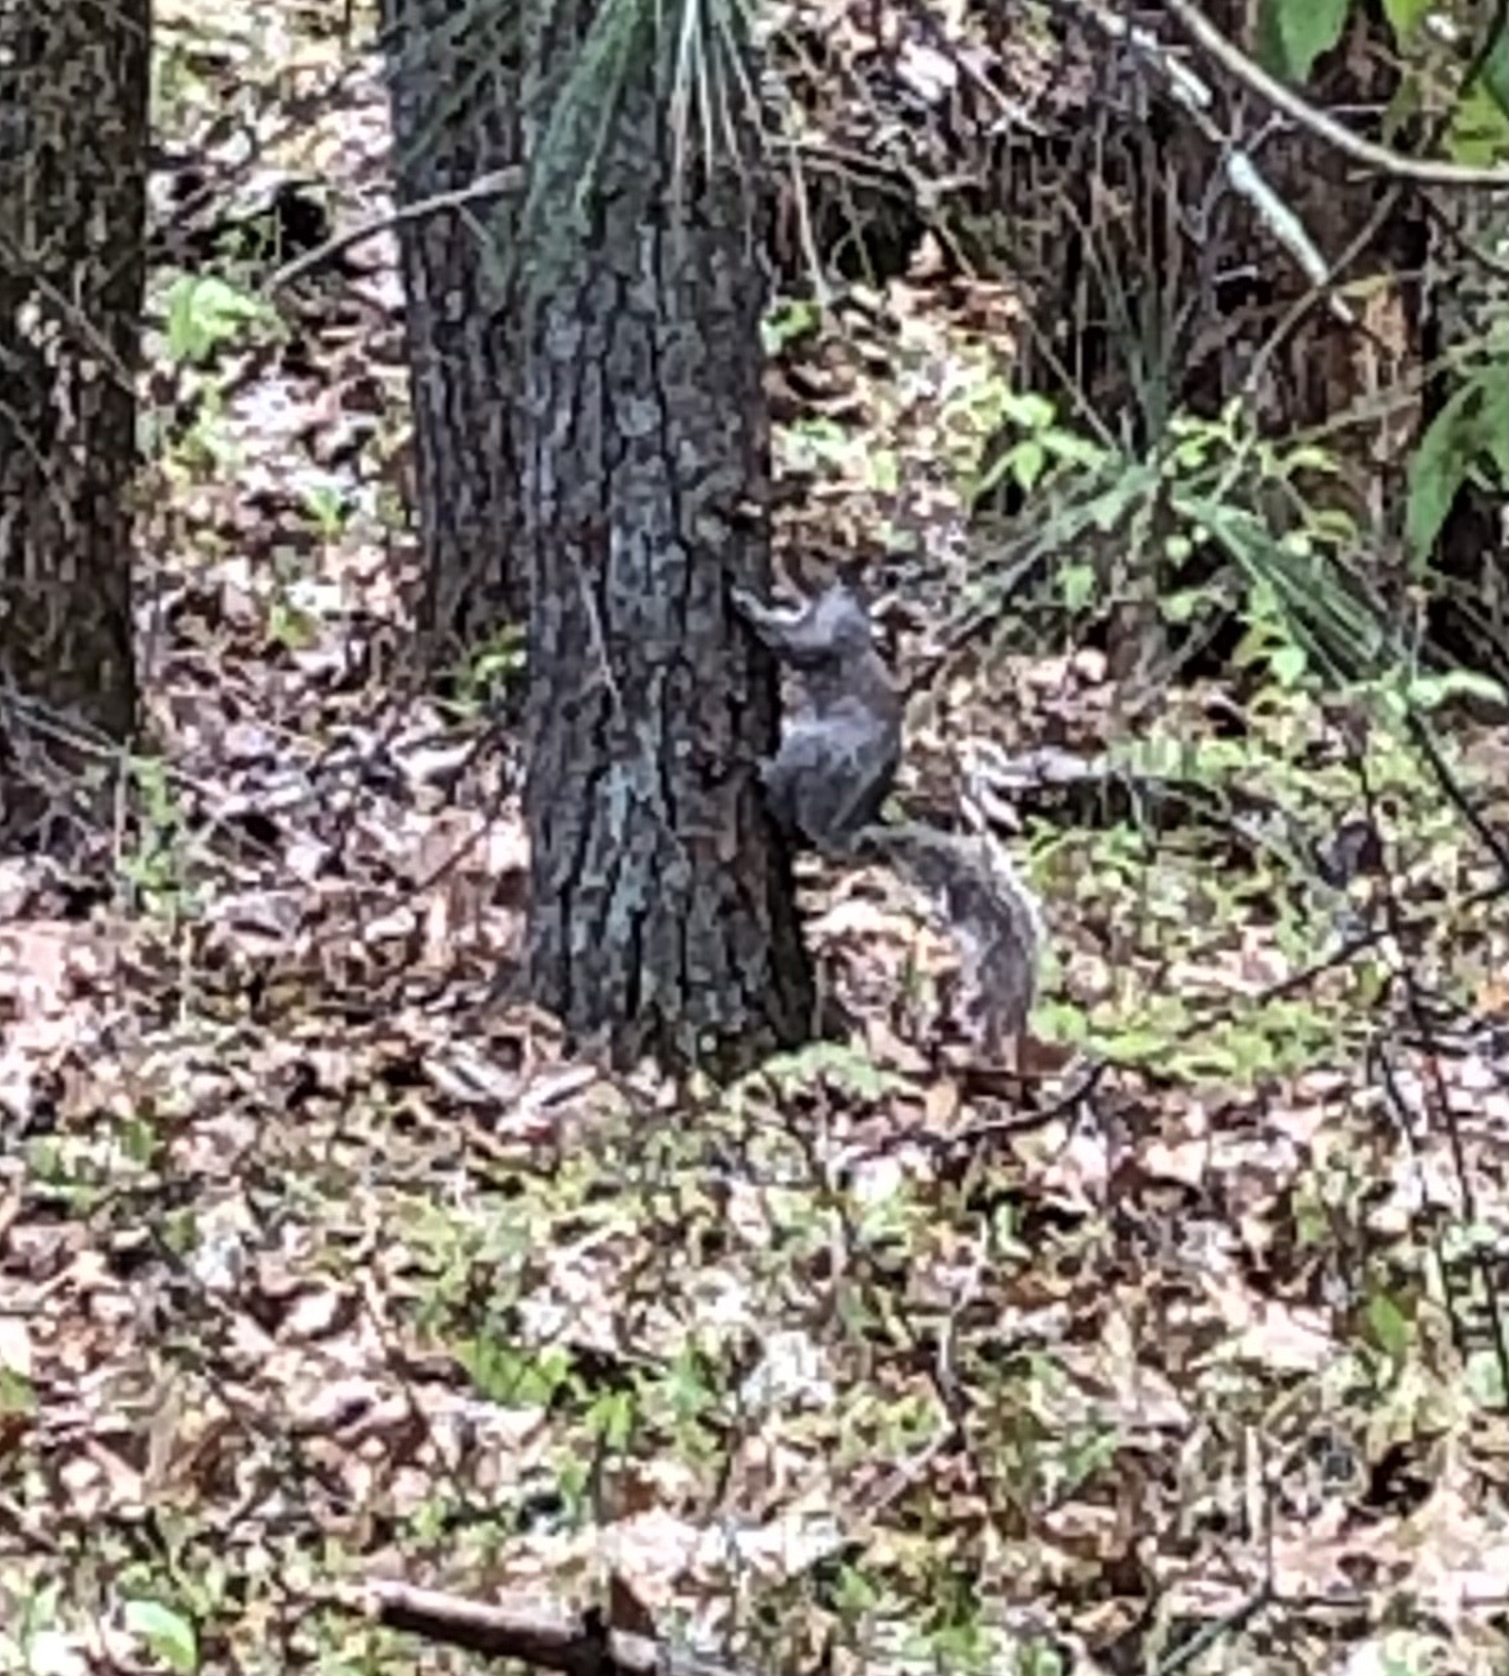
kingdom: Animalia
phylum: Chordata
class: Mammalia
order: Rodentia
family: Sciuridae
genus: Sciurus
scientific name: Sciurus carolinensis
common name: Eastern gray squirrel
